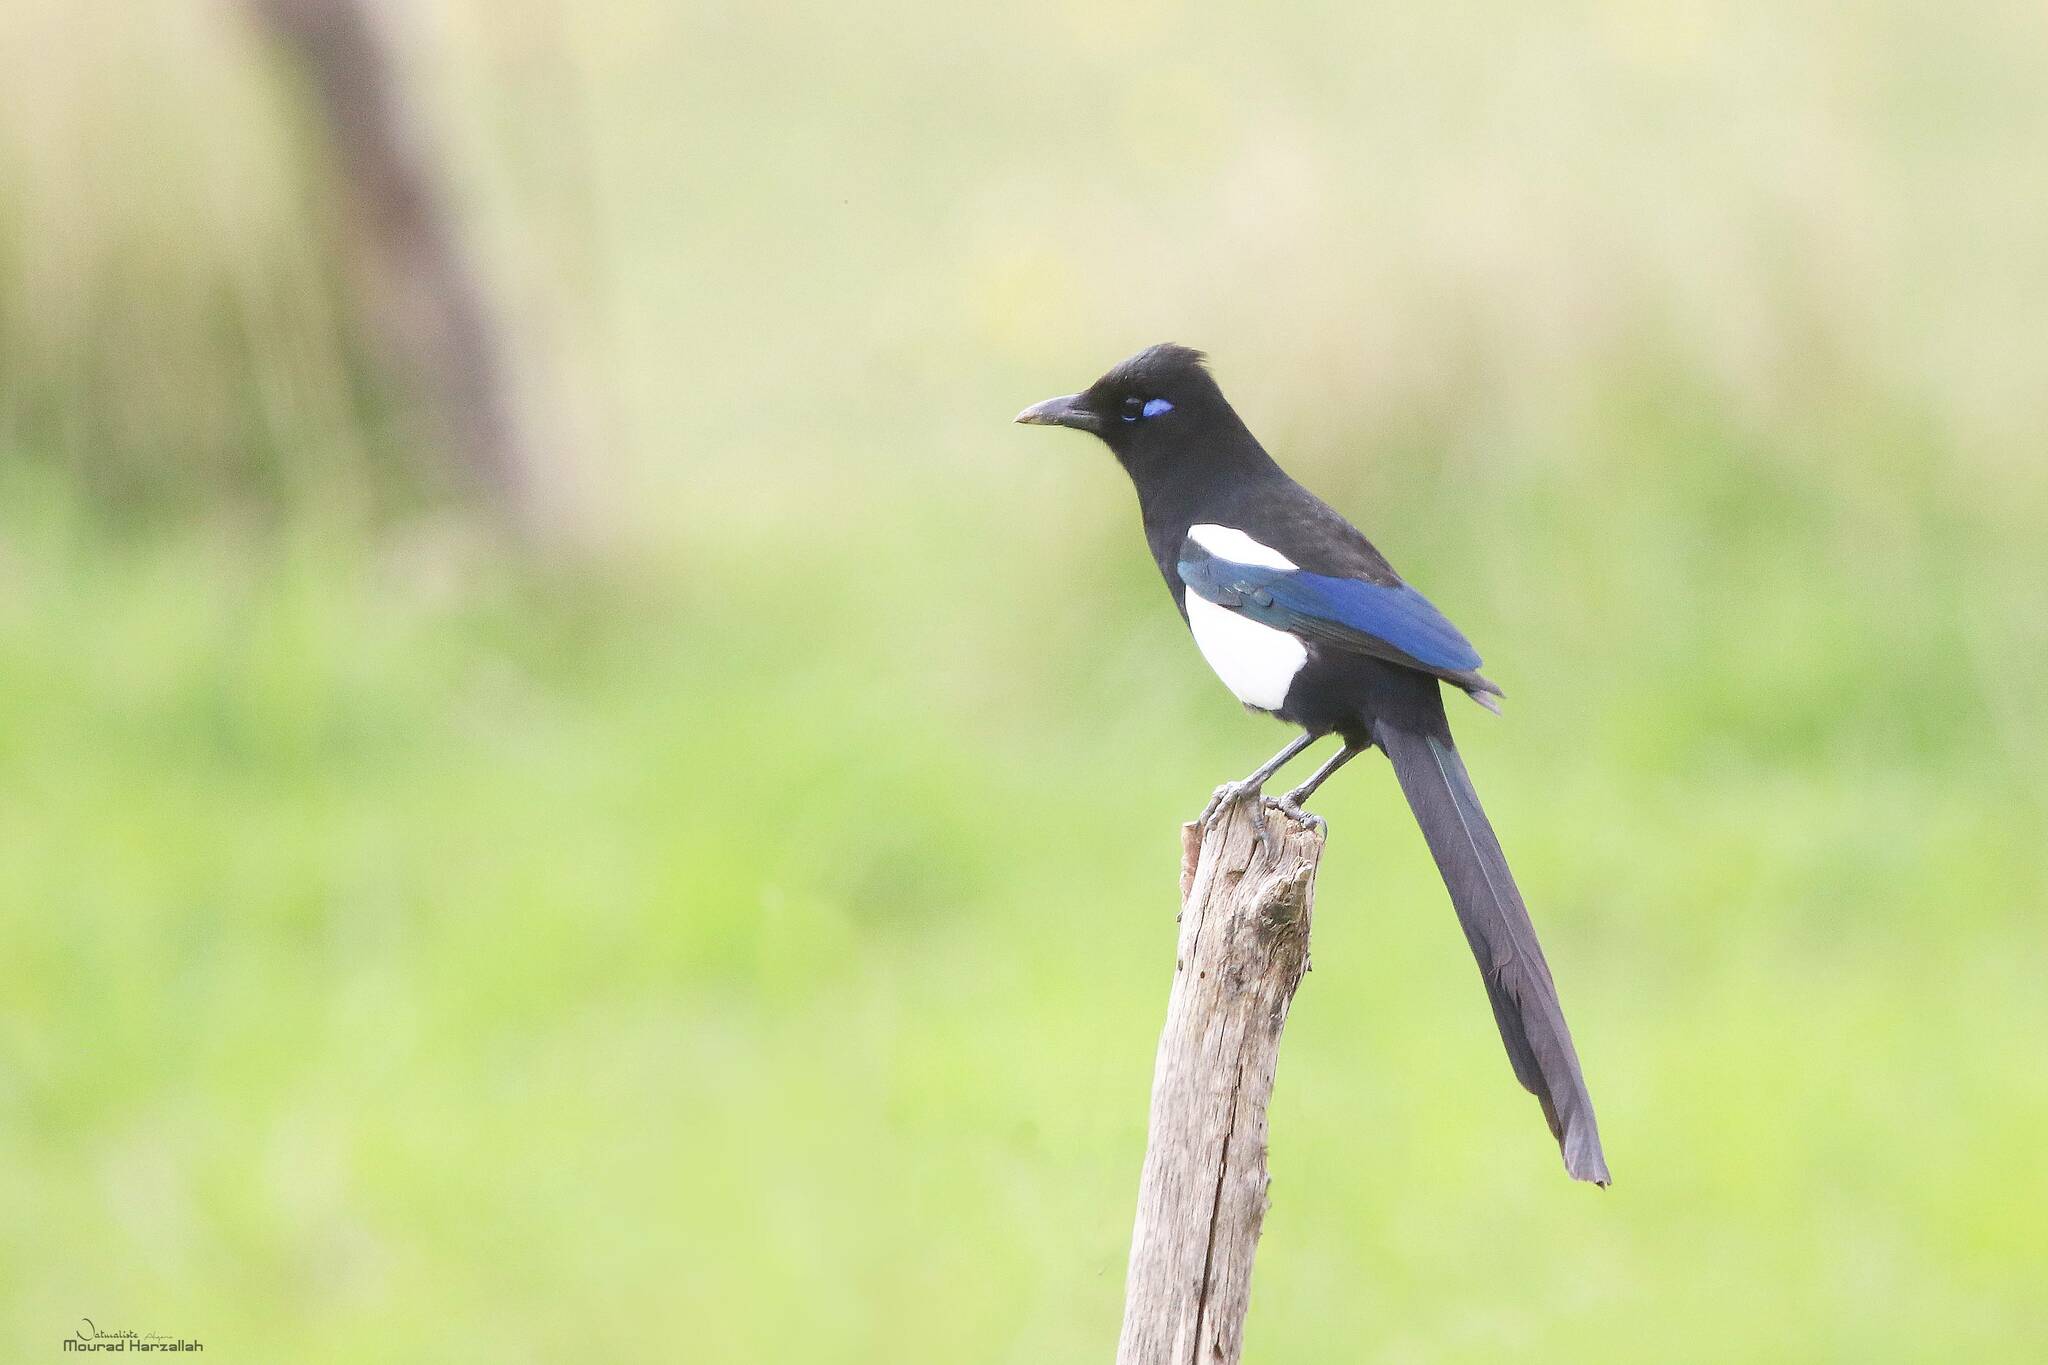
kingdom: Animalia
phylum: Chordata
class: Aves
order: Passeriformes
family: Corvidae
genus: Pica
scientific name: Pica mauritanica
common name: Maghreb magpie
